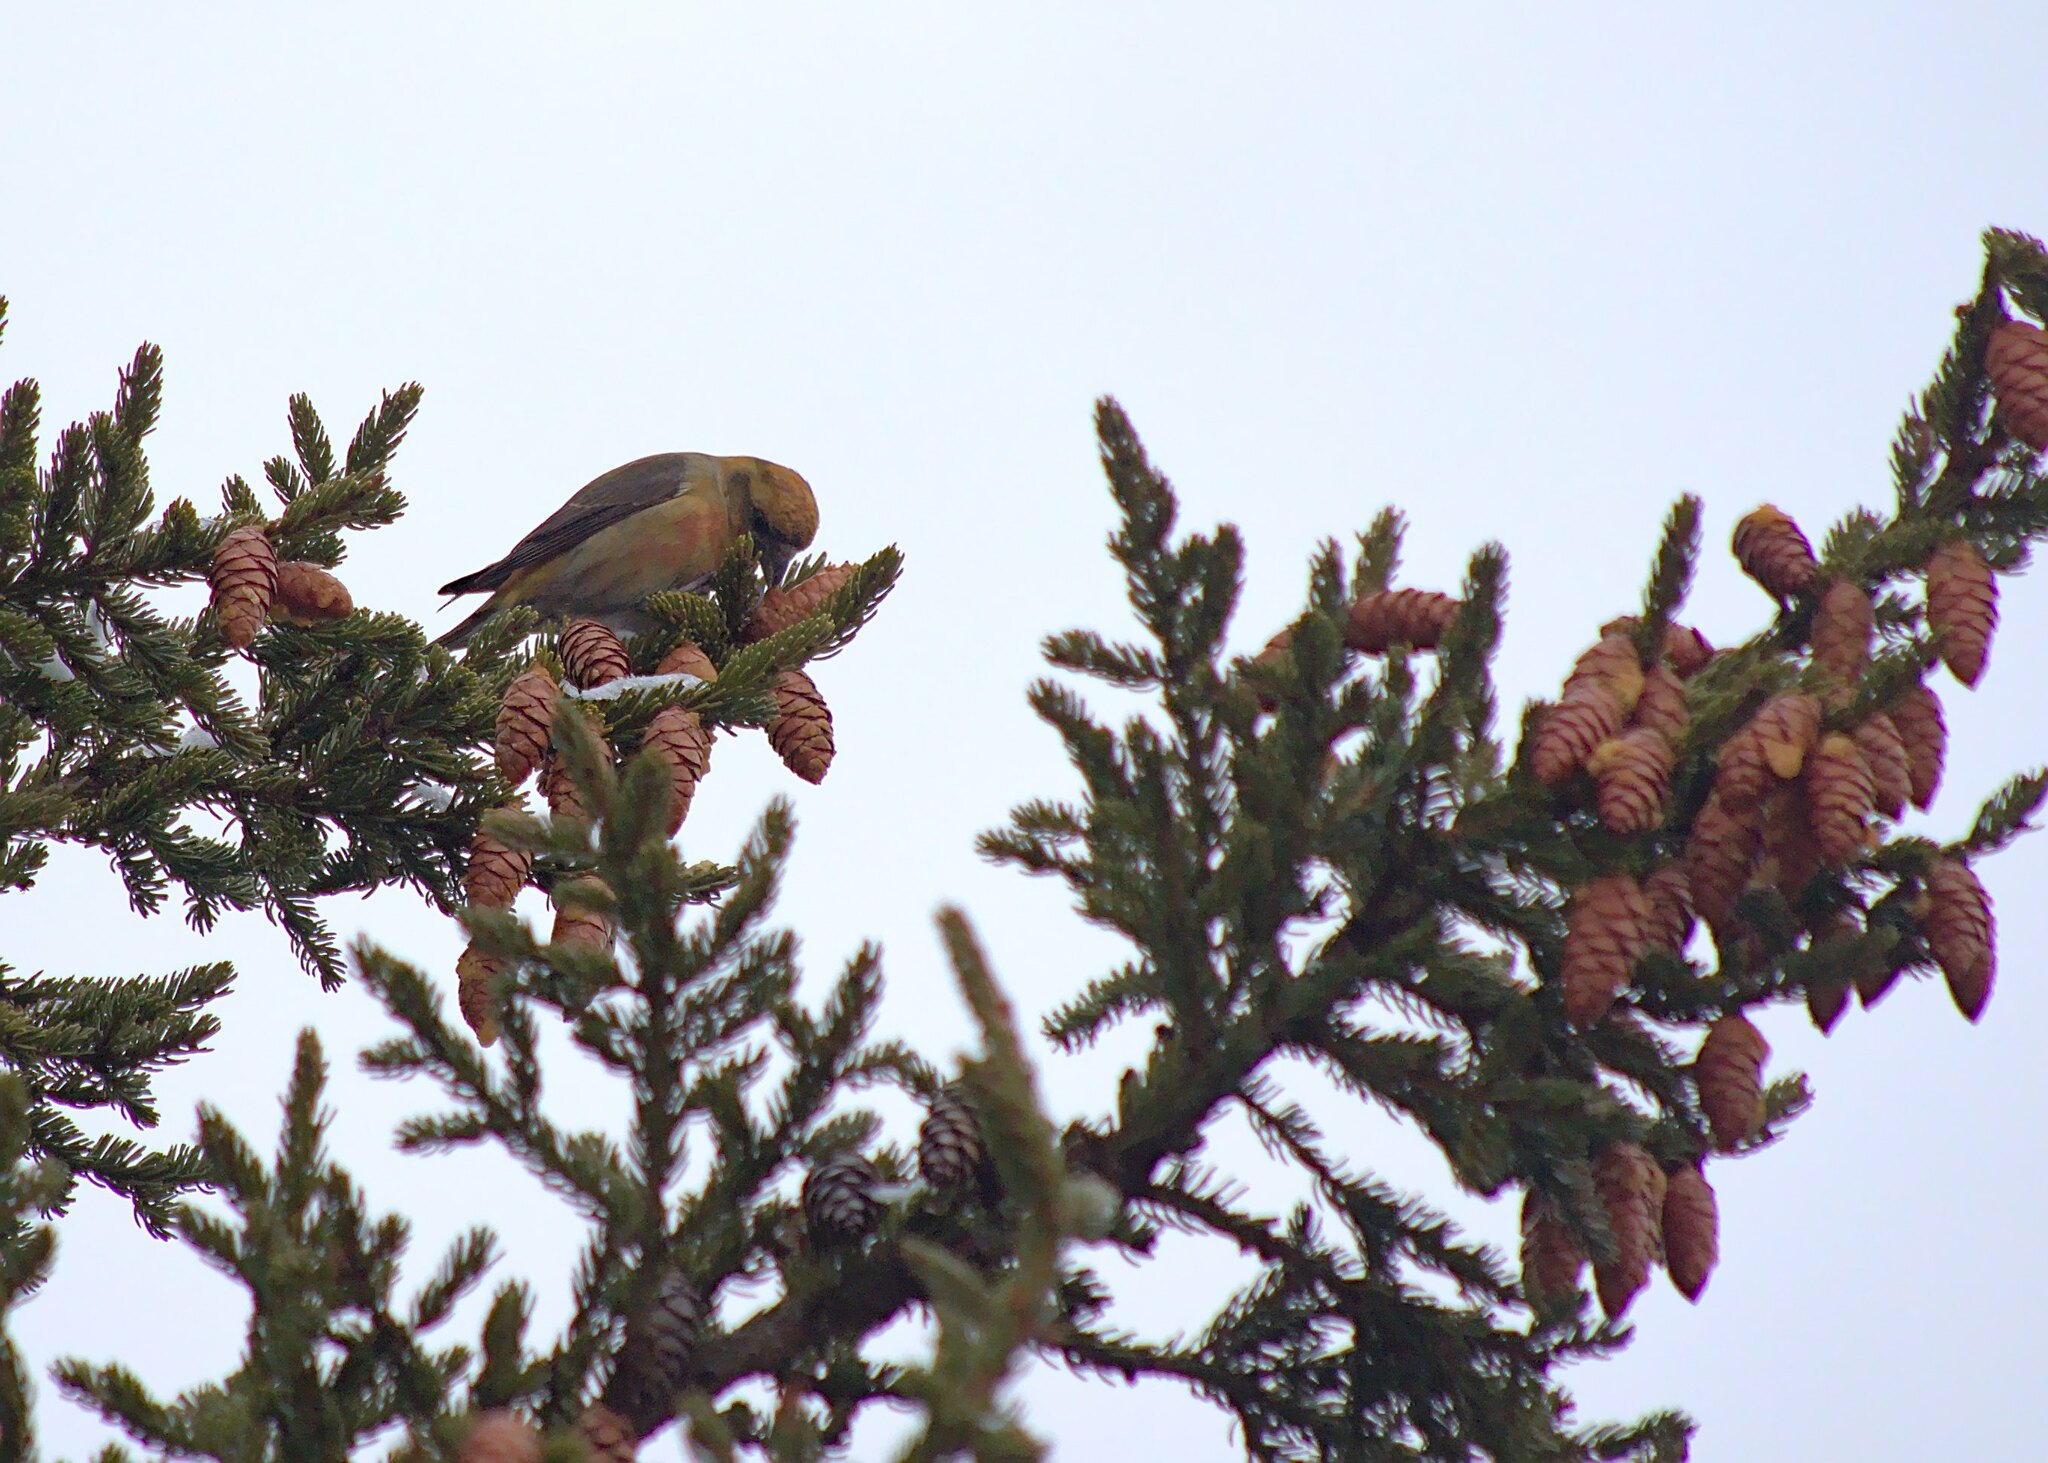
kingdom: Animalia
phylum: Chordata
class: Aves
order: Passeriformes
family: Fringillidae
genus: Loxia
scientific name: Loxia curvirostra
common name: Red crossbill
